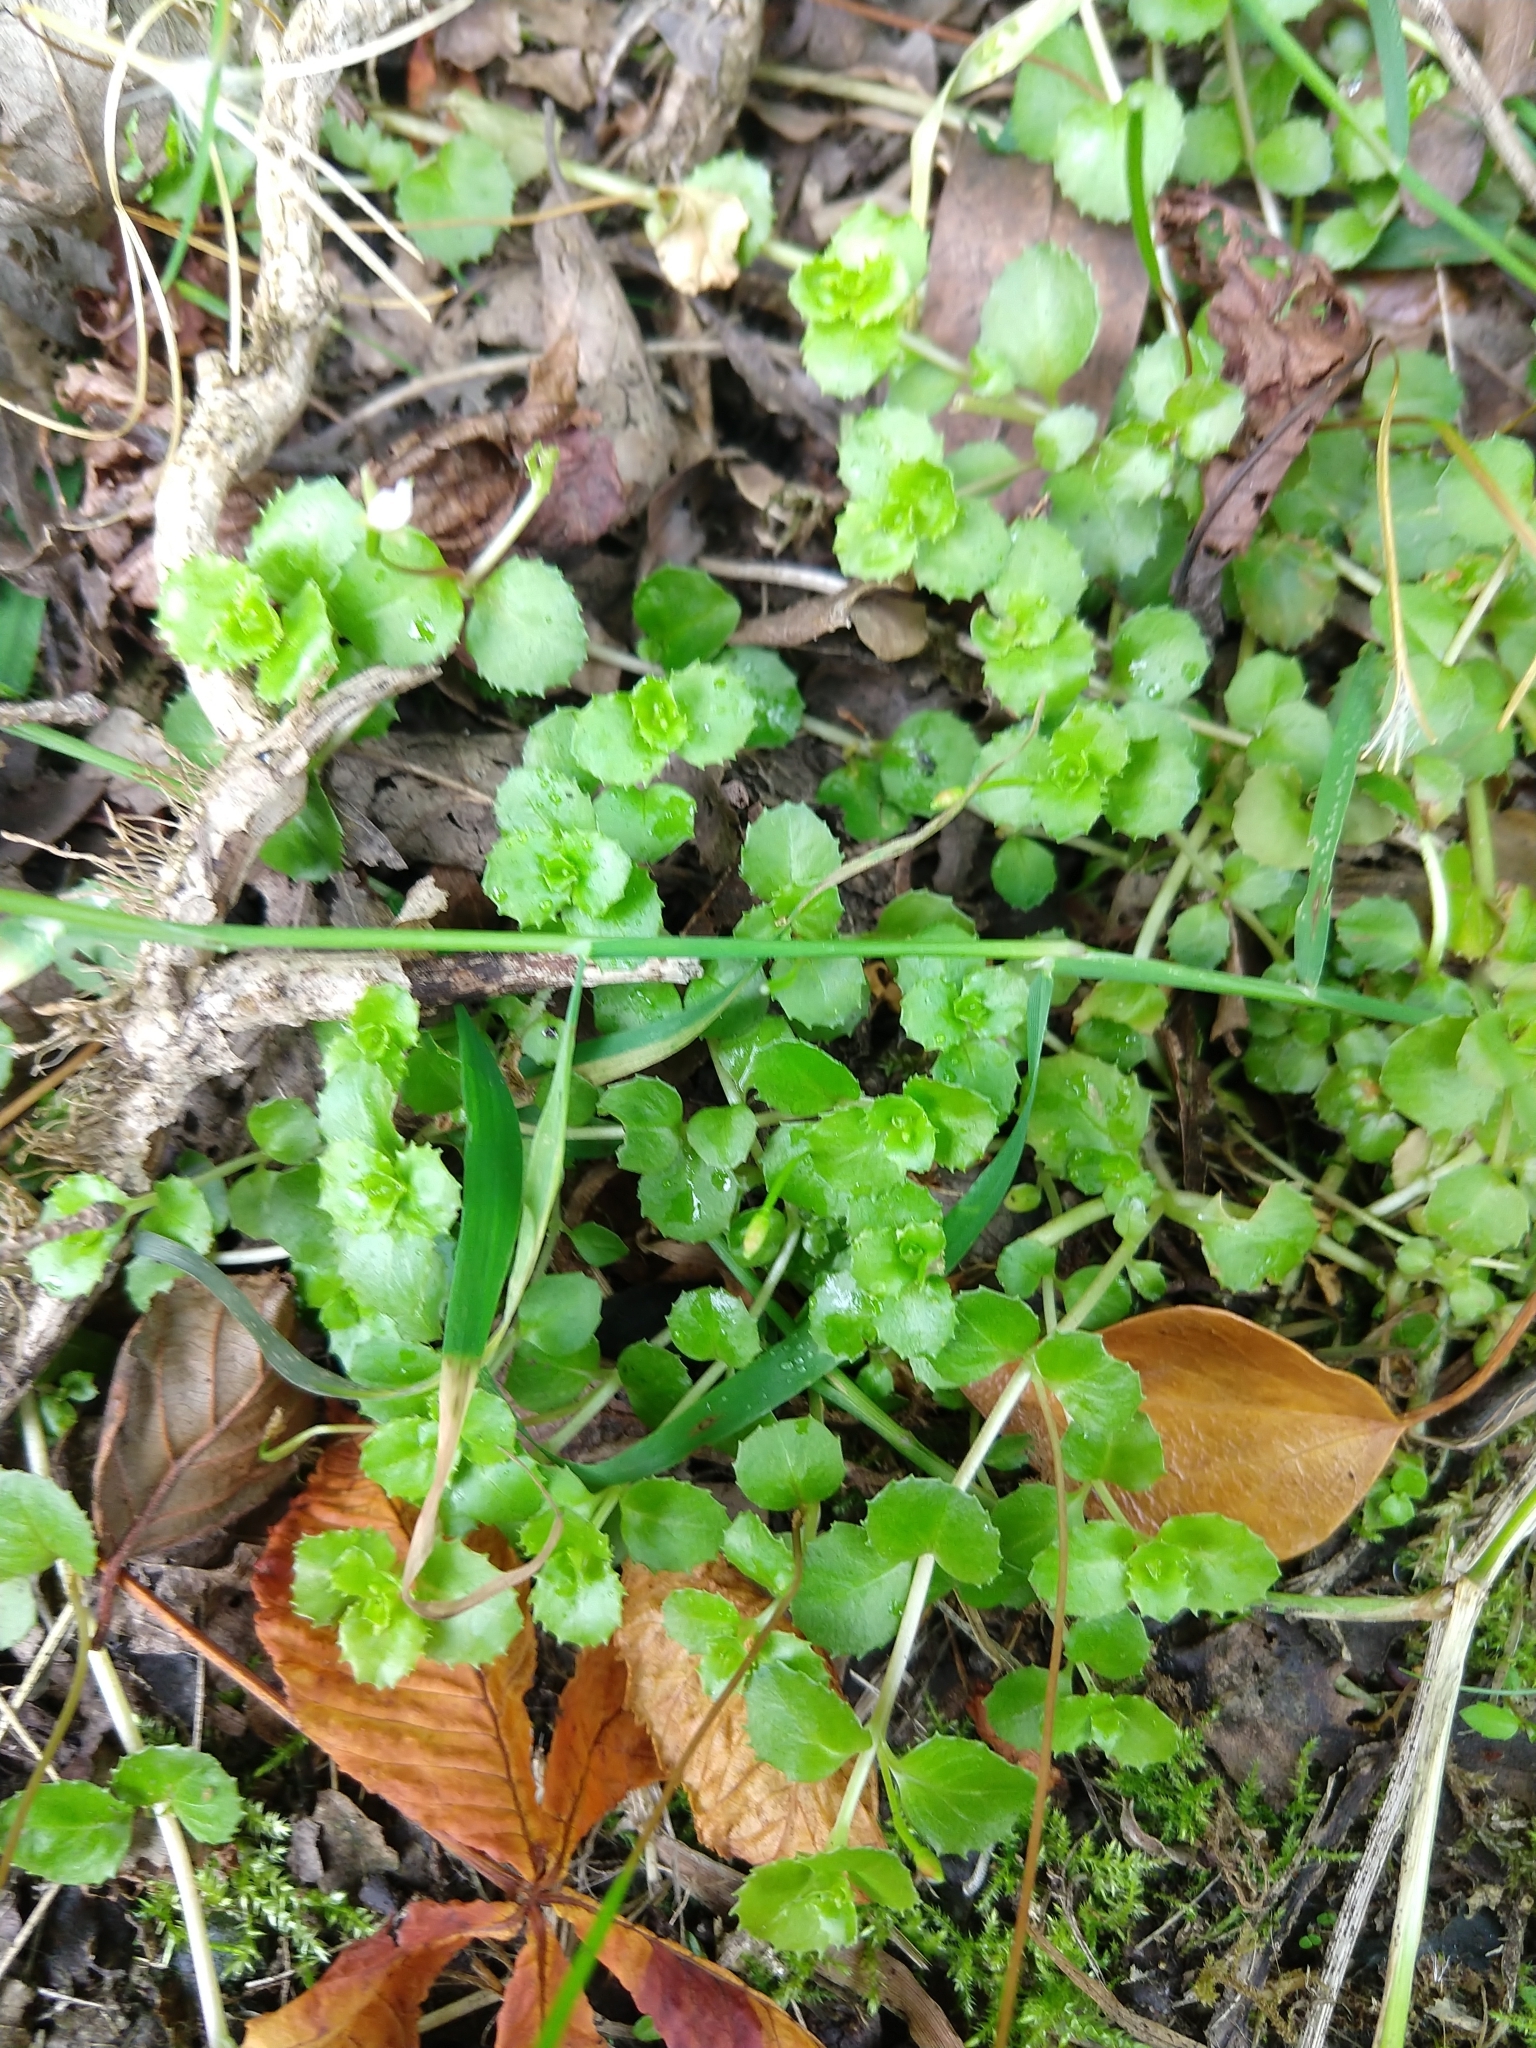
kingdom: Plantae
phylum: Tracheophyta
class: Magnoliopsida
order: Myrtales
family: Onagraceae
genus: Epilobium
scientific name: Epilobium pedunculare
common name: Rockery willowherb
